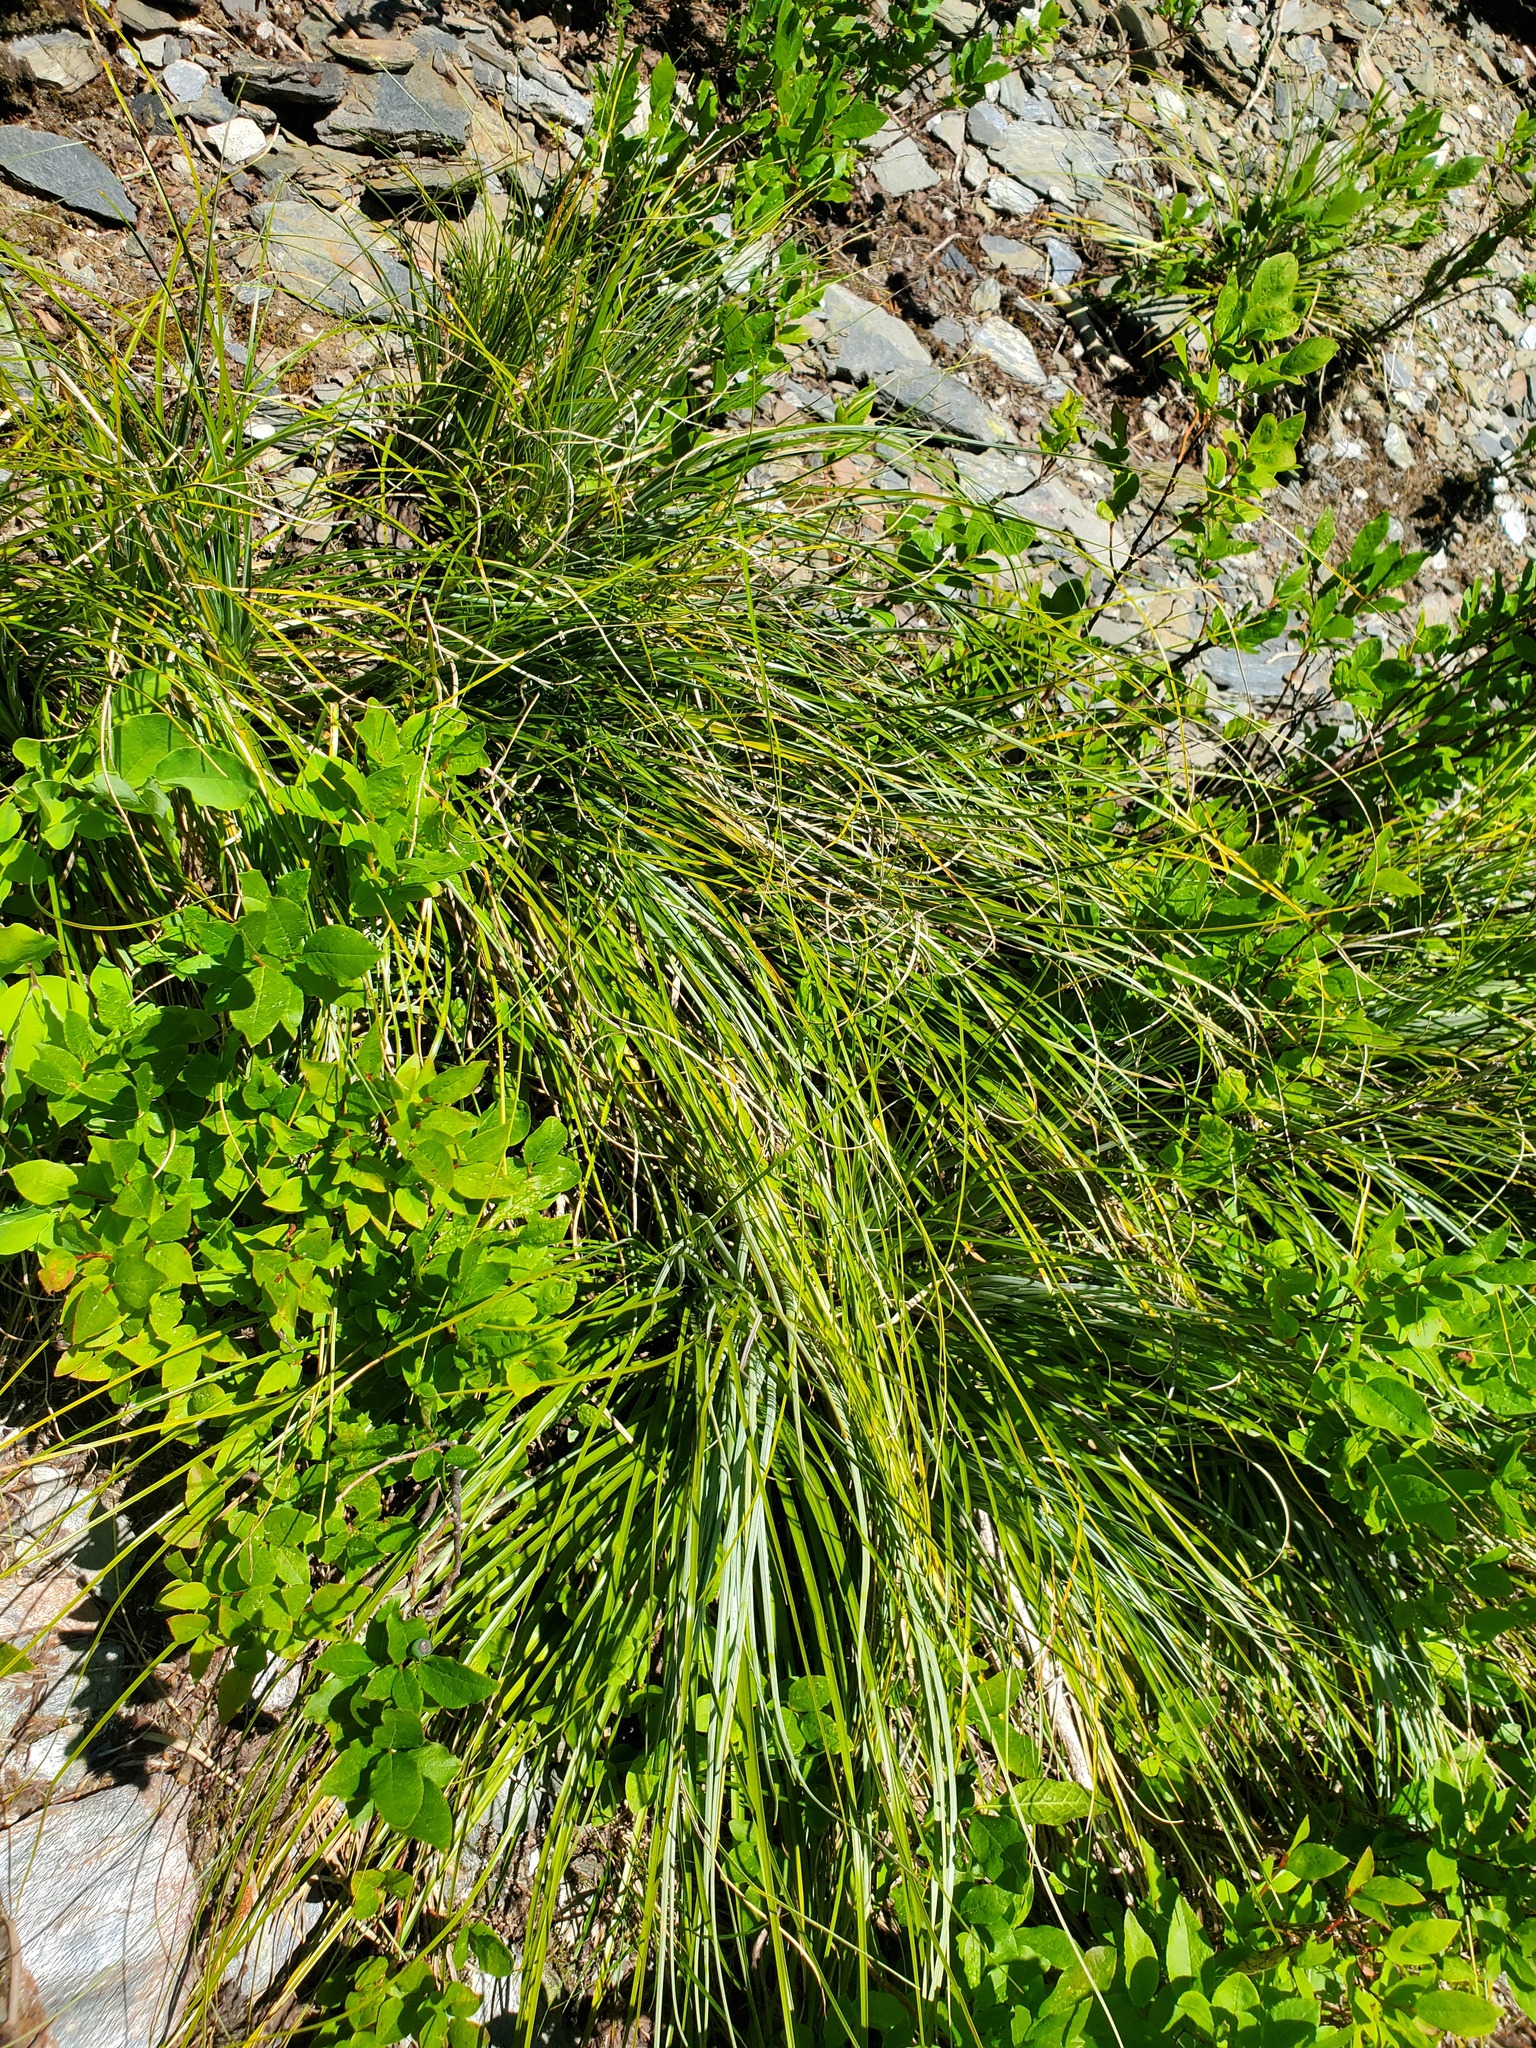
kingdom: Plantae
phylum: Tracheophyta
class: Liliopsida
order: Liliales
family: Melanthiaceae
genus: Xerophyllum
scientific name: Xerophyllum tenax
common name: Bear-grass
